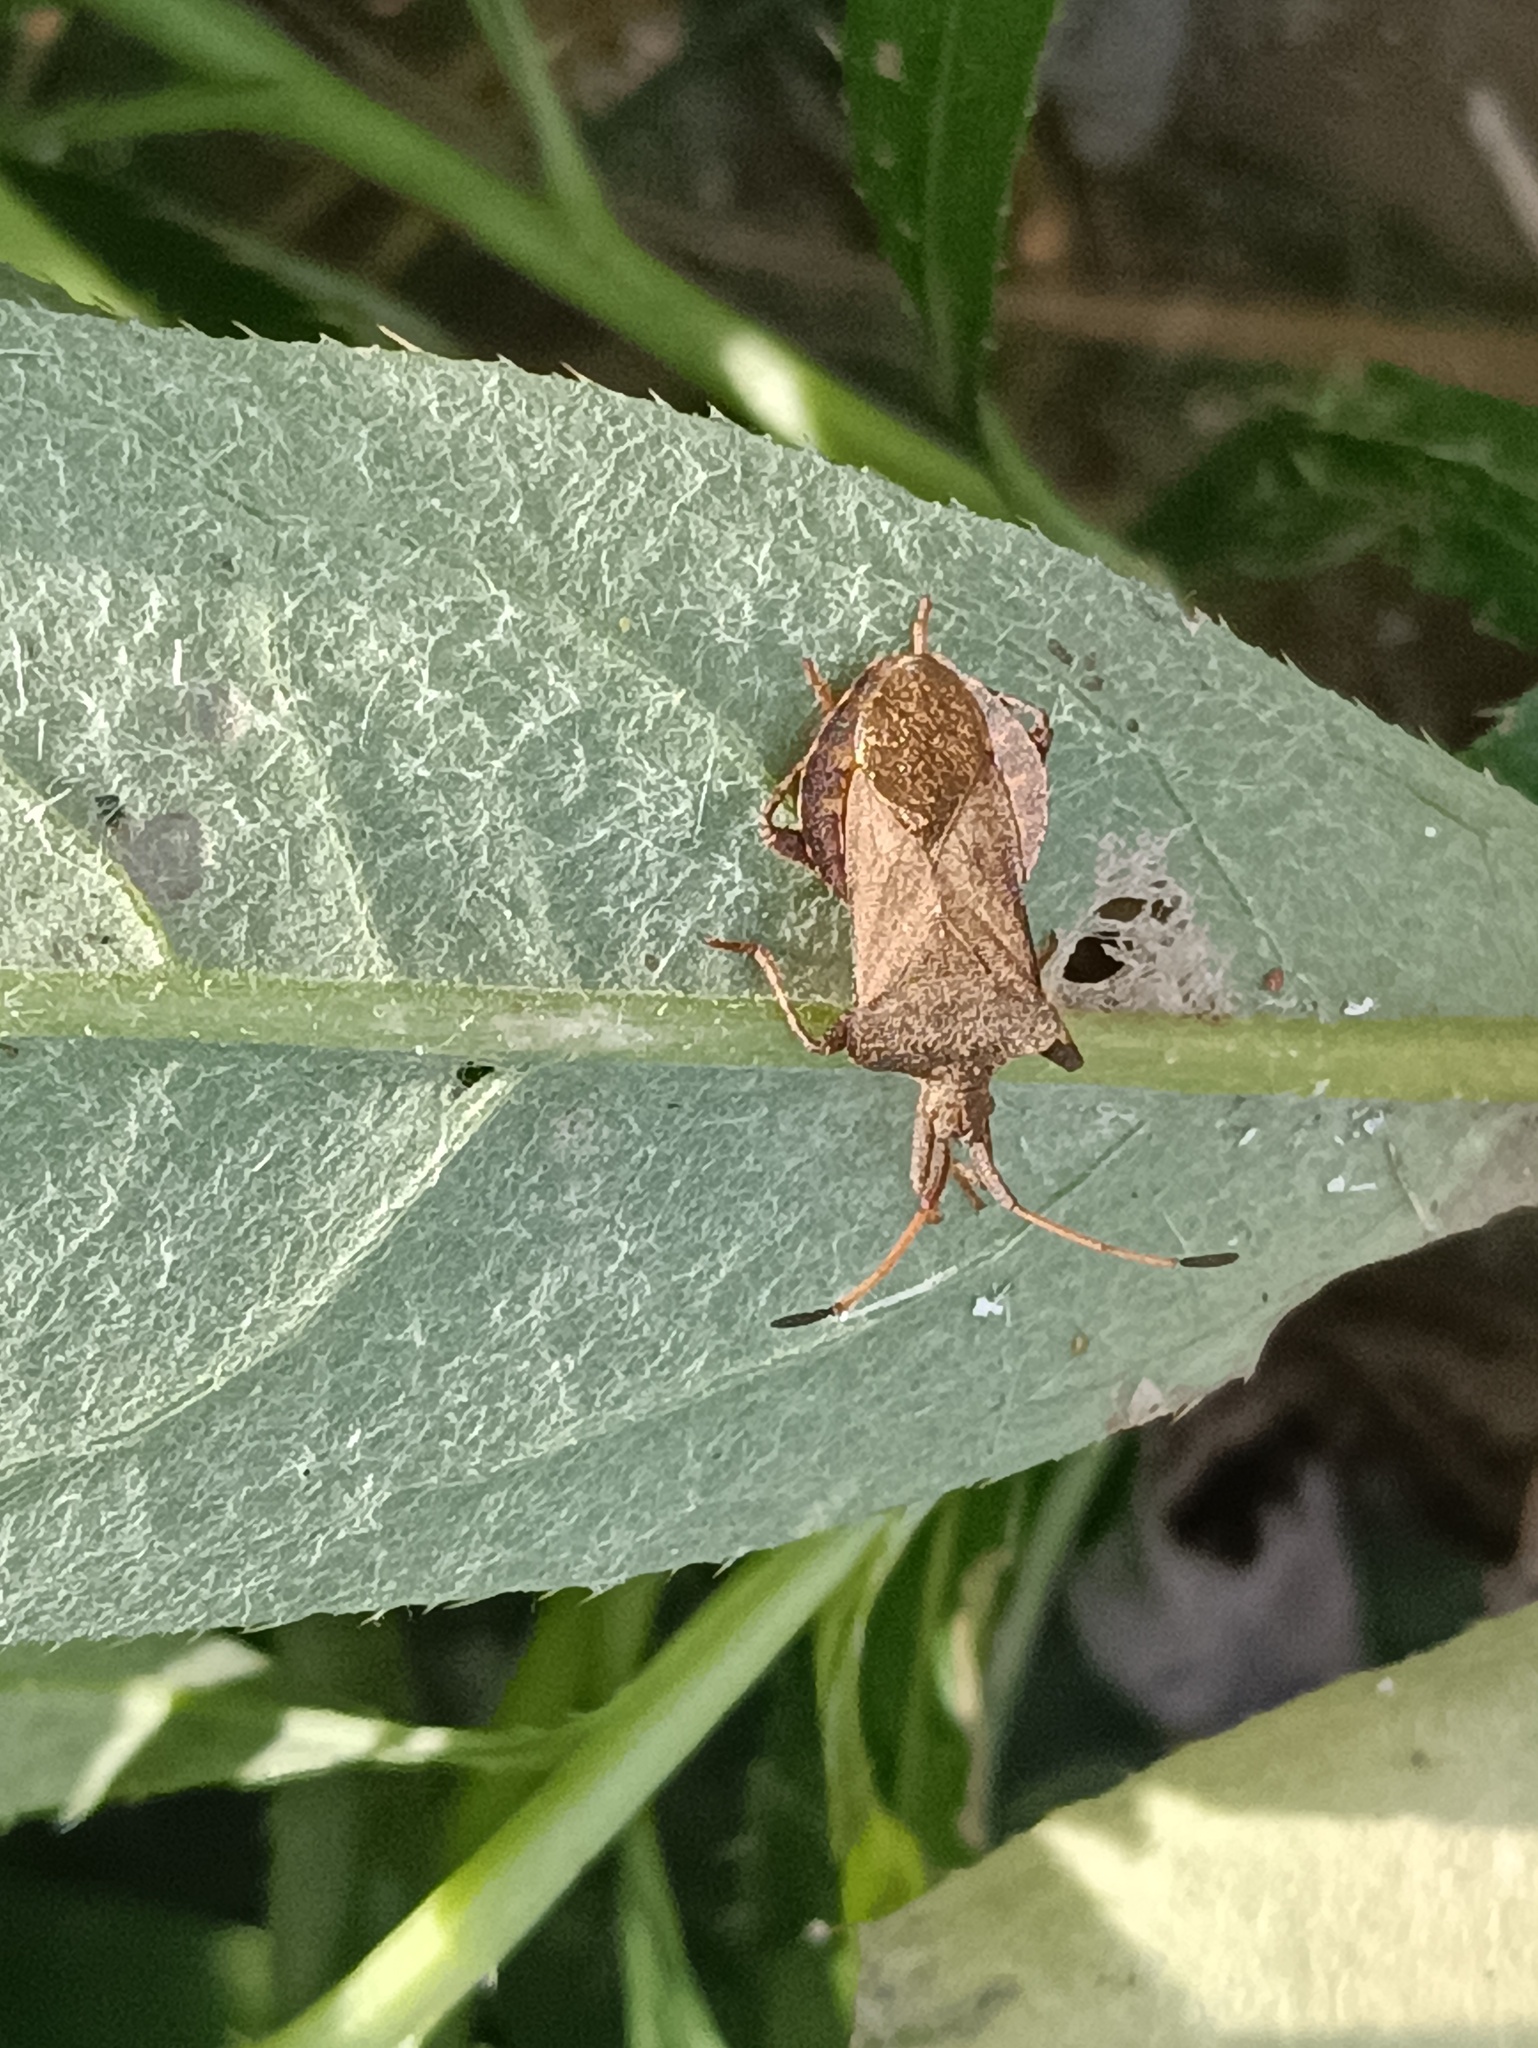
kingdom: Animalia
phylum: Arthropoda
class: Insecta
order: Hemiptera
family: Coreidae
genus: Coreus
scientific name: Coreus marginatus
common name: Dock bug
